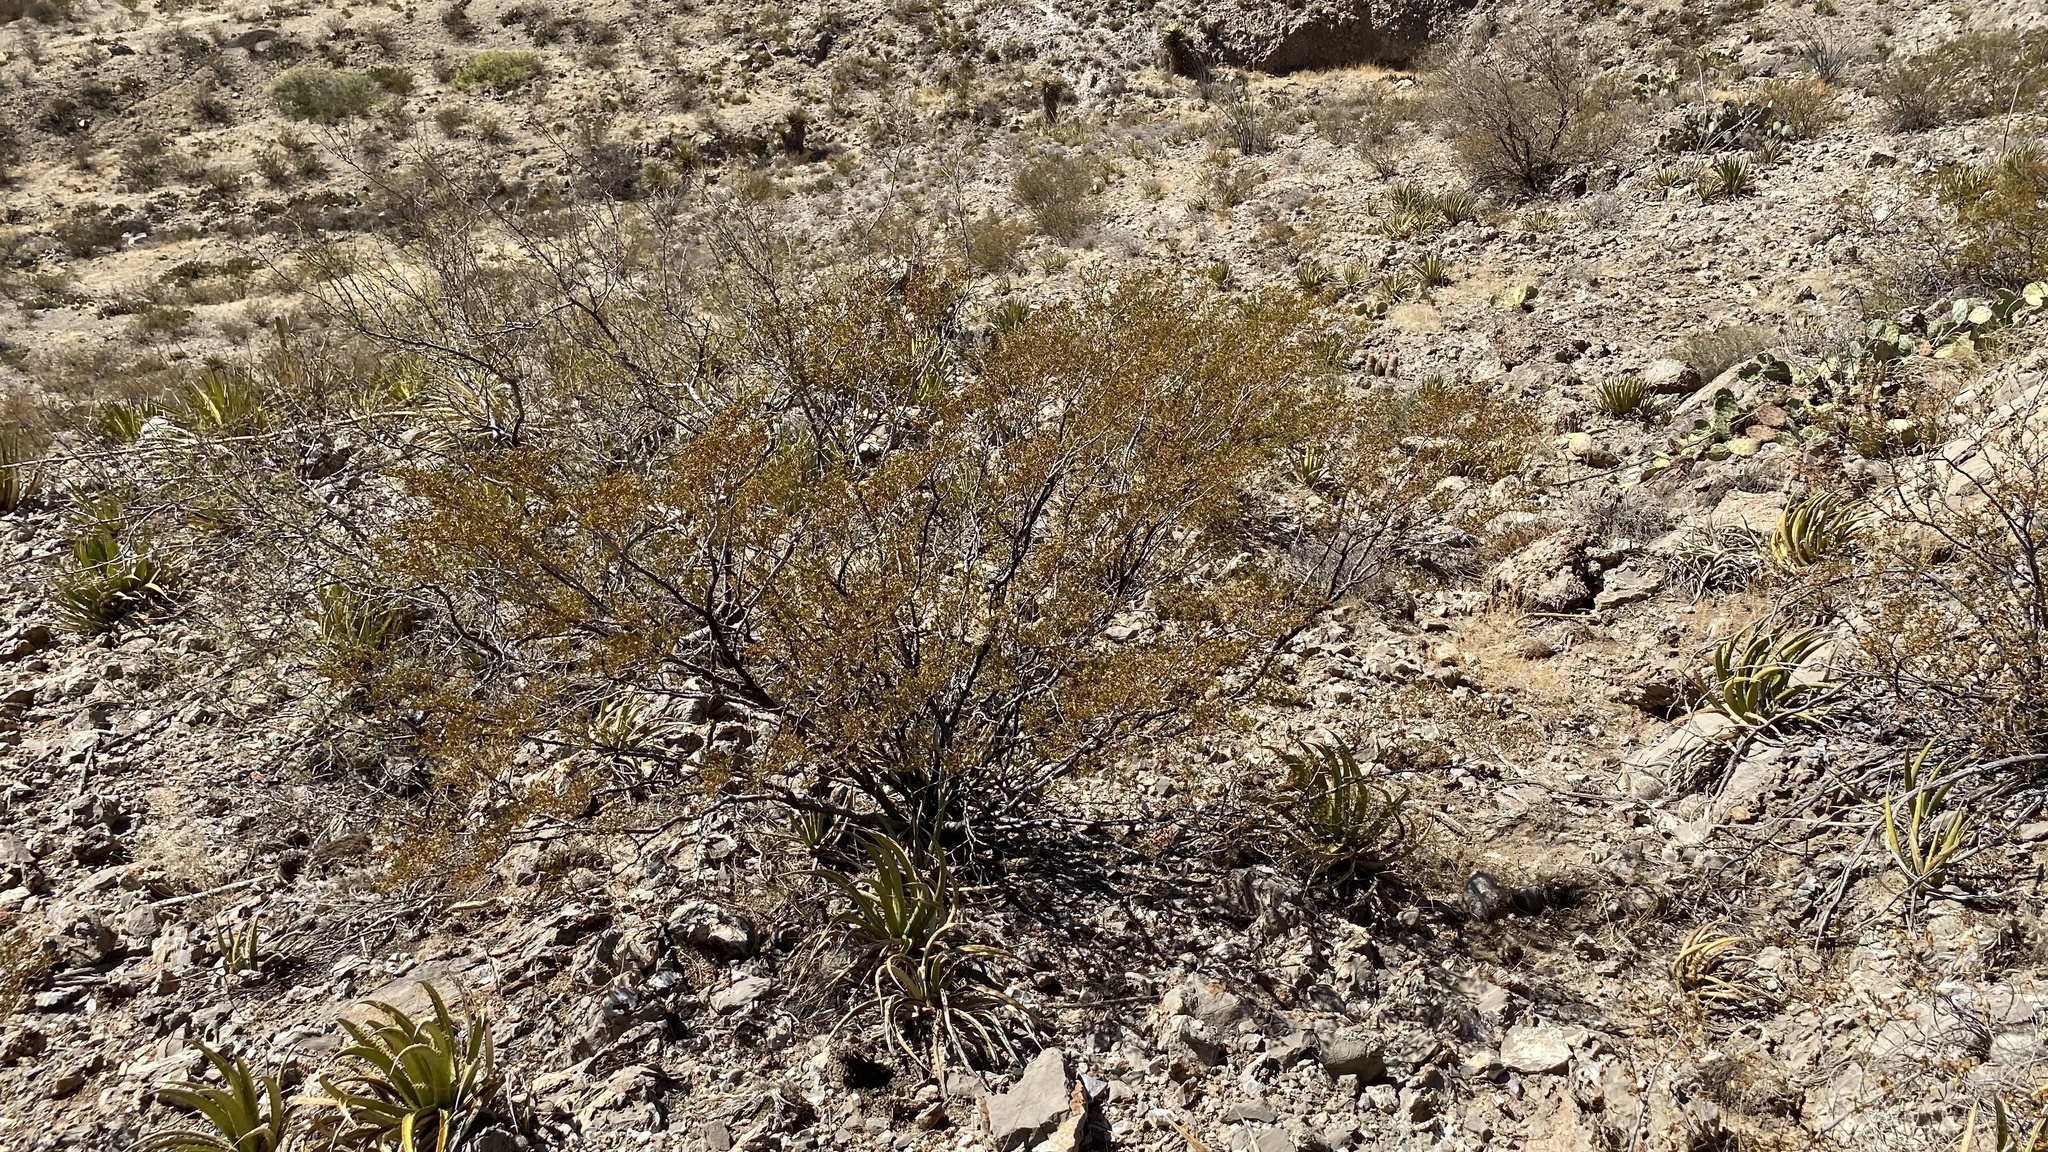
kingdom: Plantae
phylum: Tracheophyta
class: Magnoliopsida
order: Zygophyllales
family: Zygophyllaceae
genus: Larrea
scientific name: Larrea tridentata
